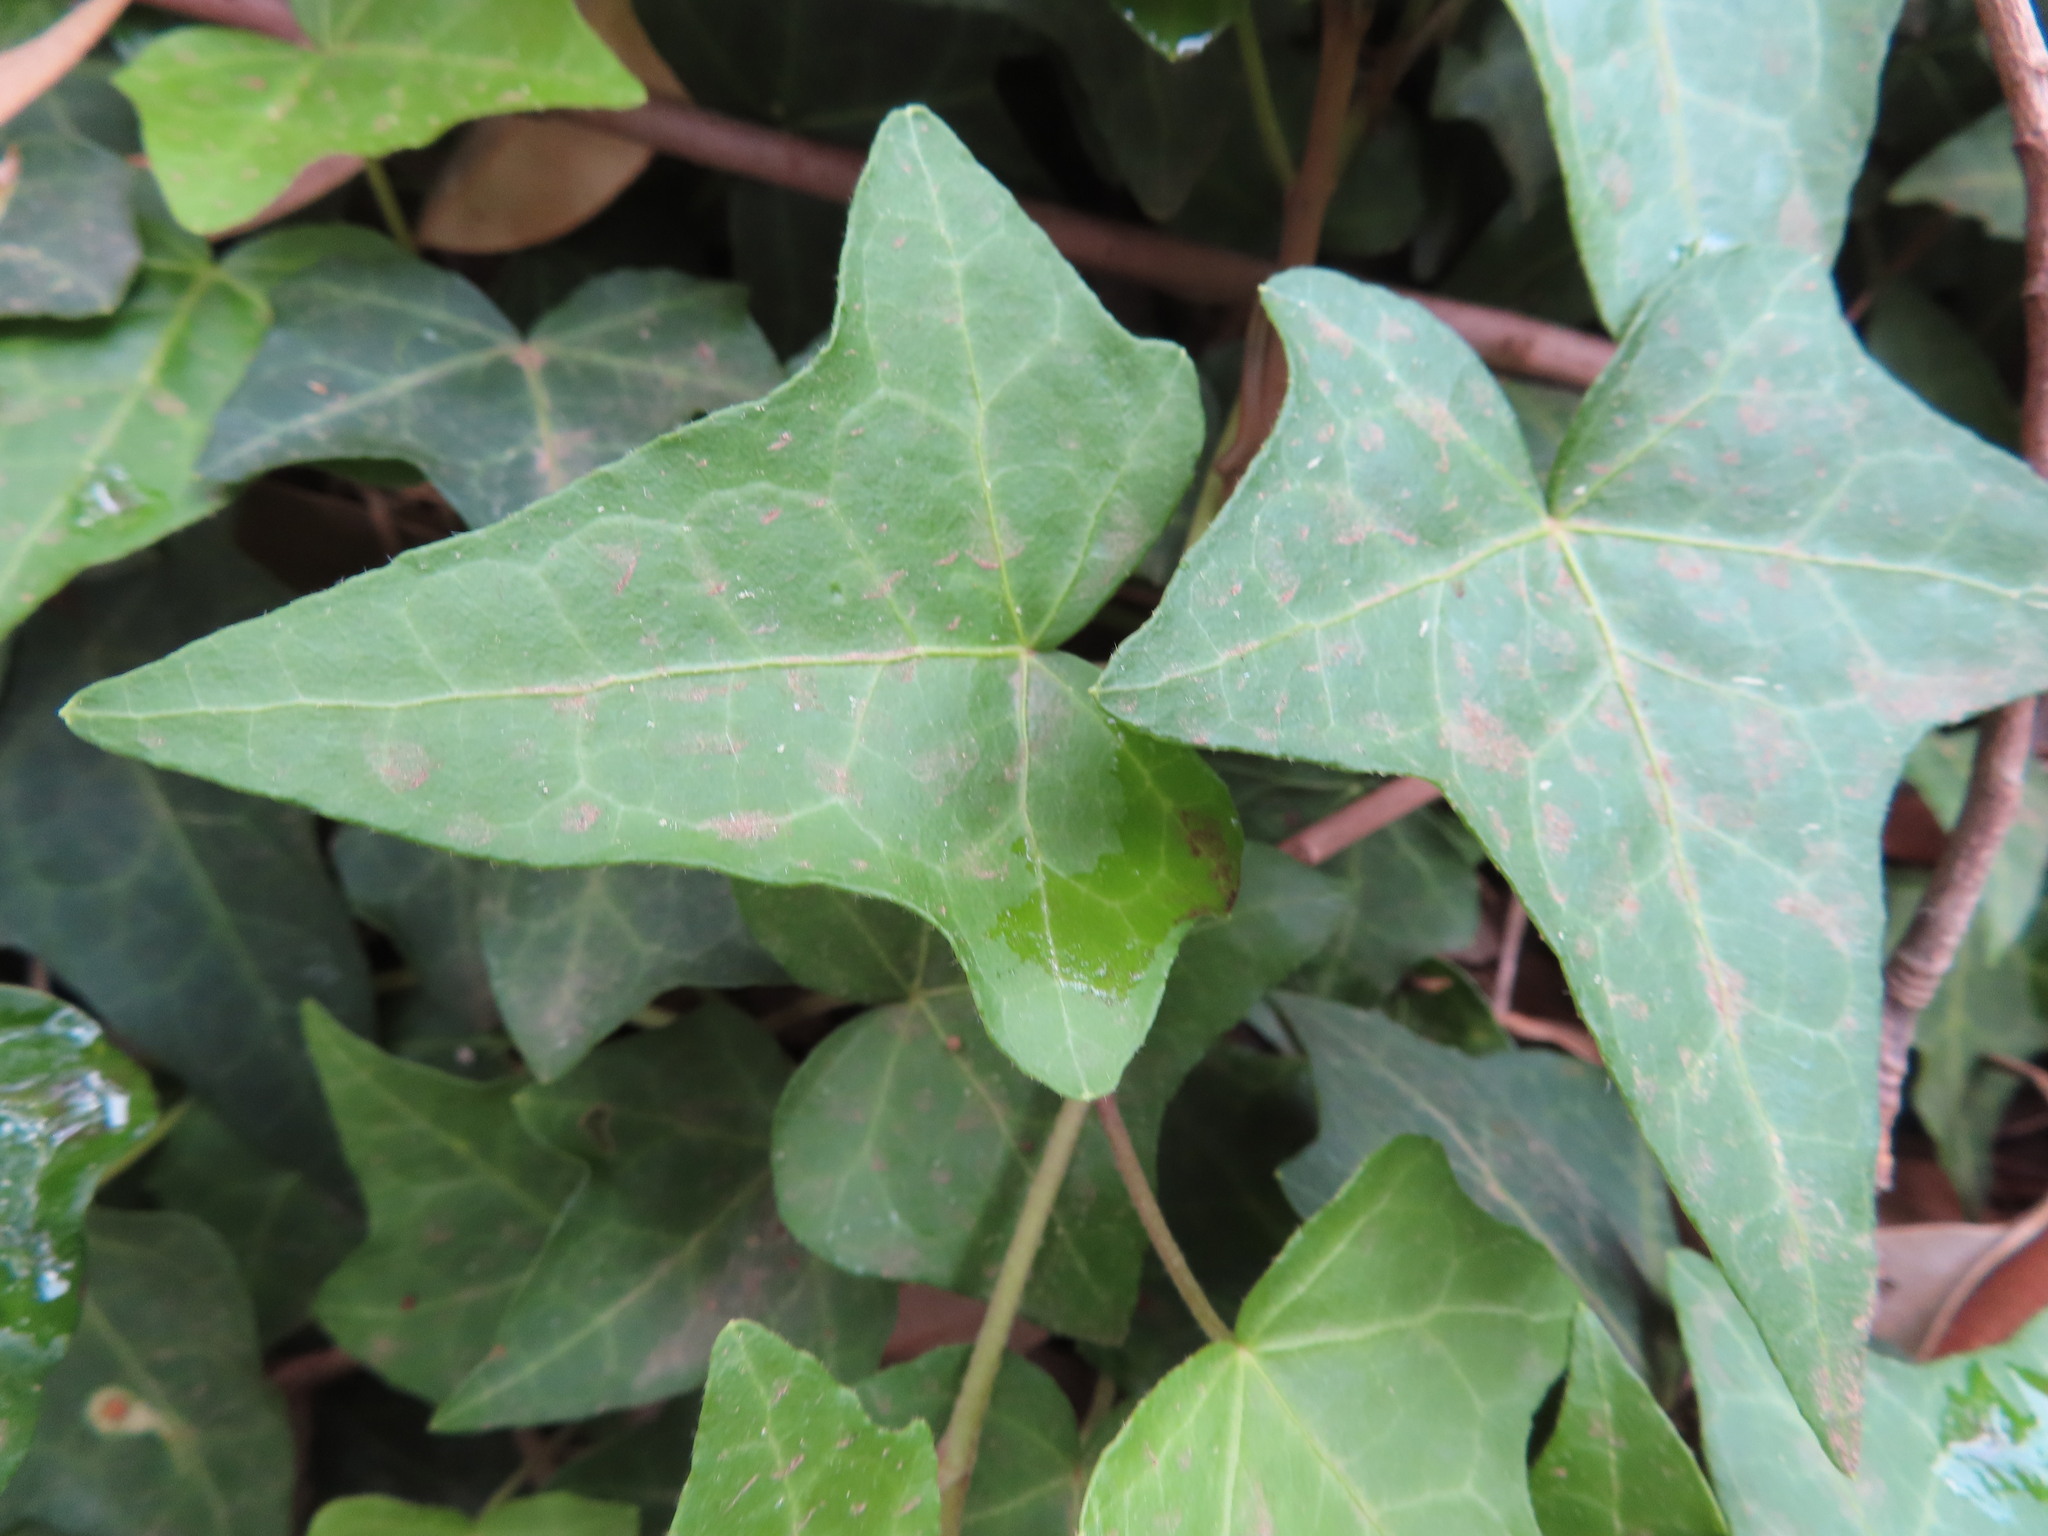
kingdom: Plantae
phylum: Tracheophyta
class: Magnoliopsida
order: Apiales
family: Araliaceae
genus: Hedera
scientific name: Hedera helix
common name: Ivy
